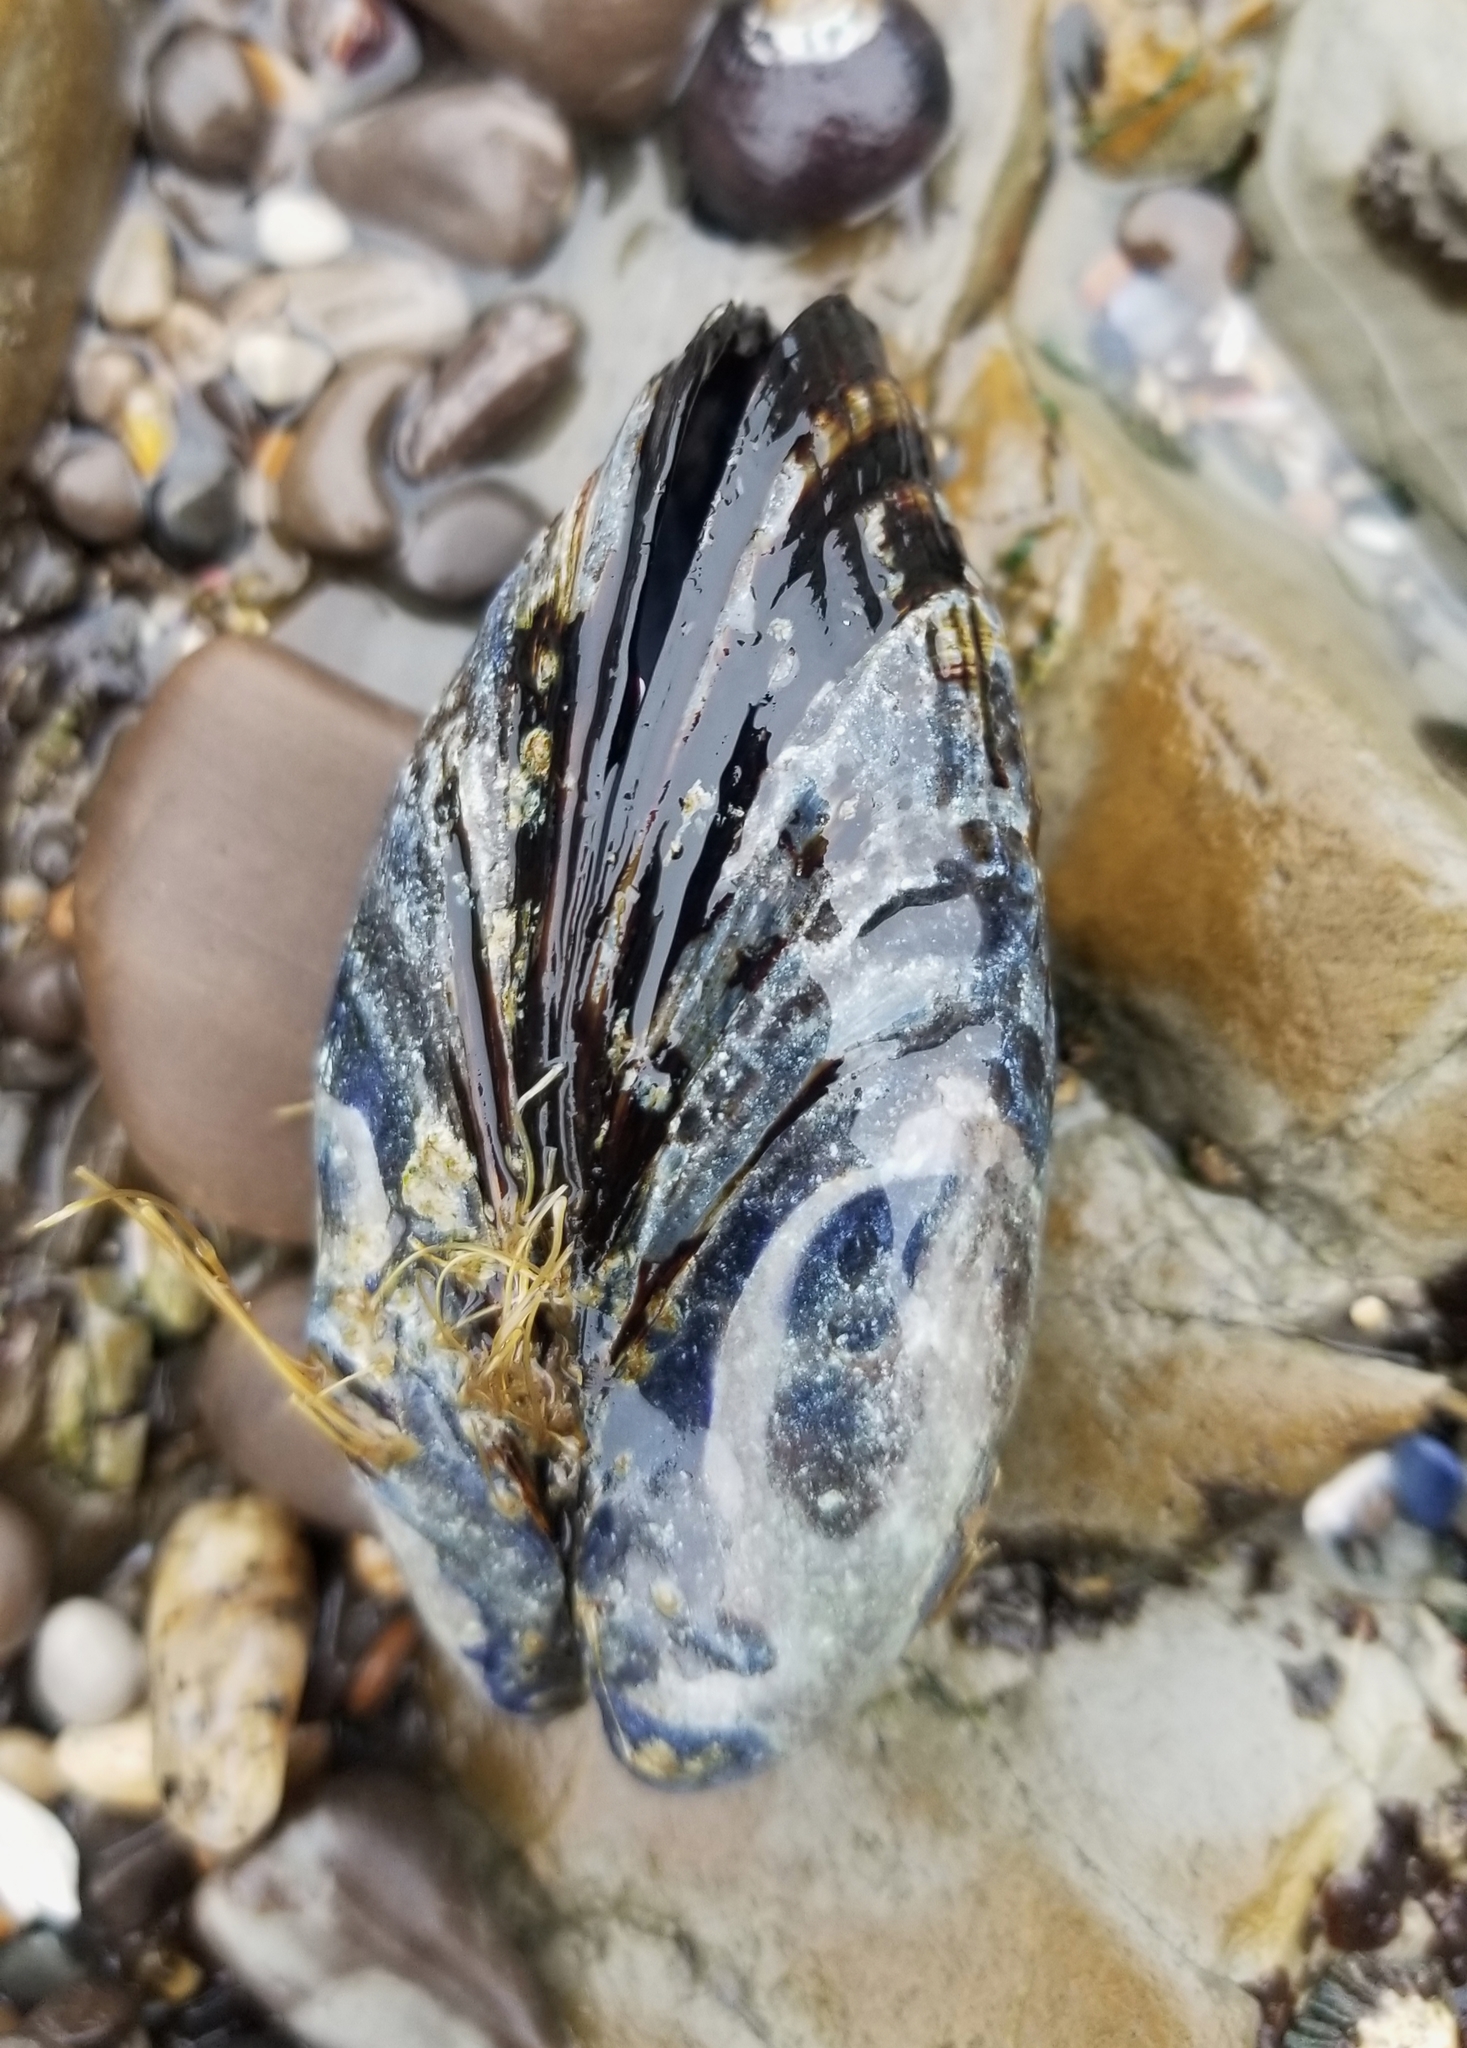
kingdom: Animalia
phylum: Mollusca
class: Bivalvia
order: Mytilida
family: Mytilidae
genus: Mytilus
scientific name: Mytilus californianus
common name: California mussel
